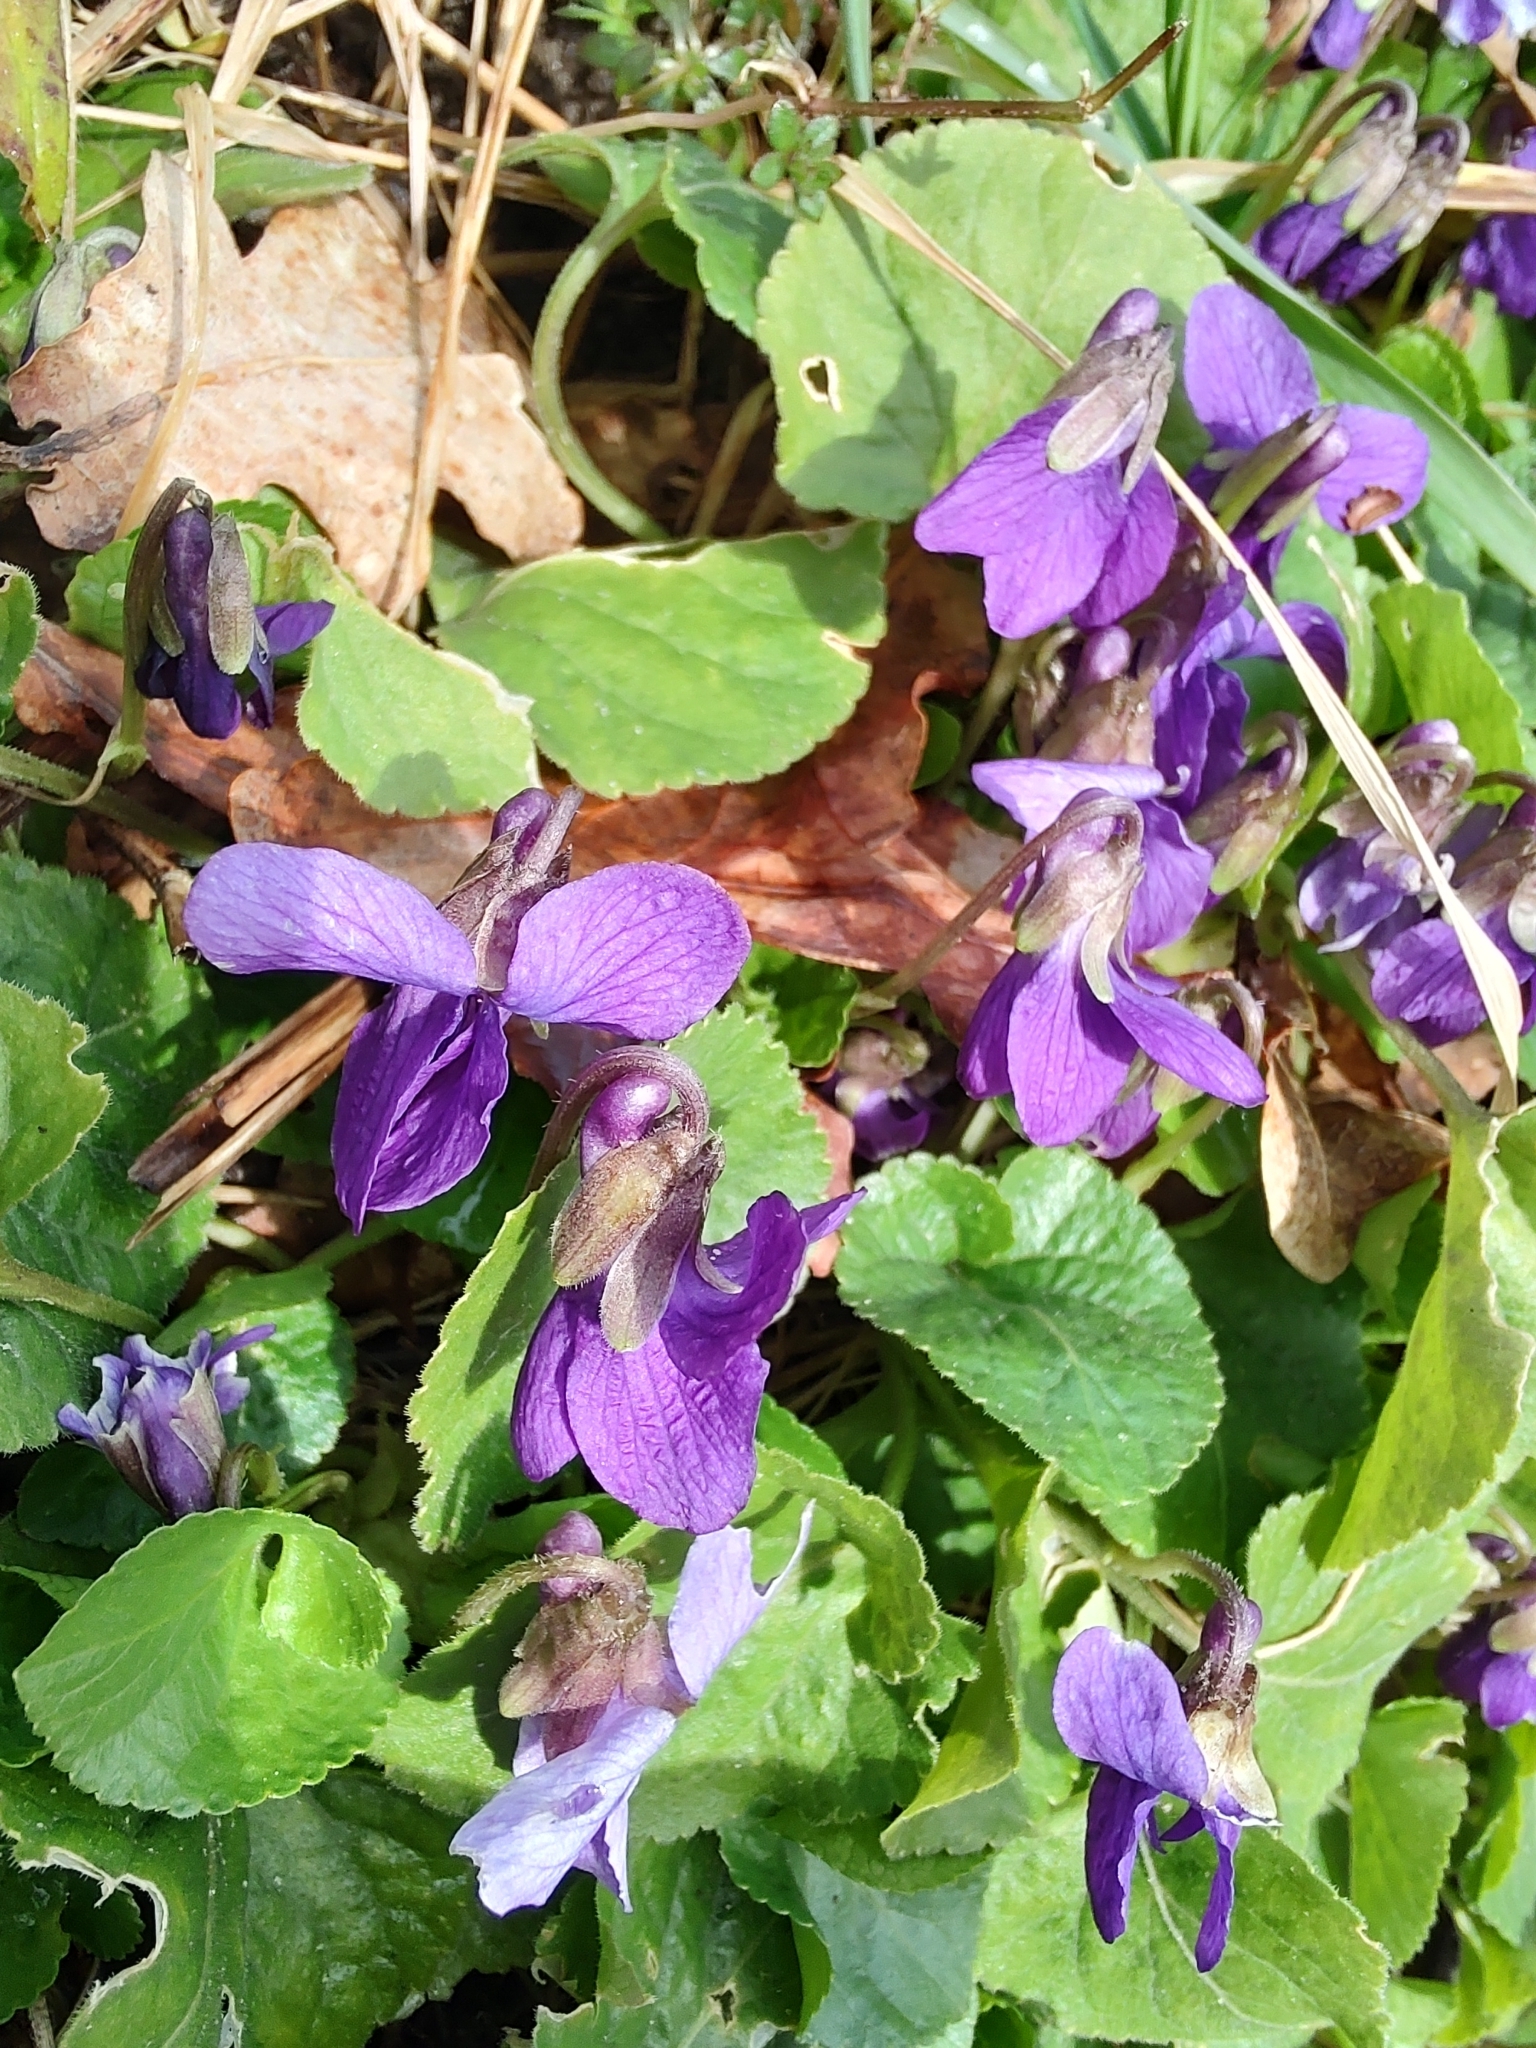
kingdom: Plantae
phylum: Tracheophyta
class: Magnoliopsida
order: Malpighiales
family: Violaceae
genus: Viola
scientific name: Viola odorata
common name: Sweet violet
